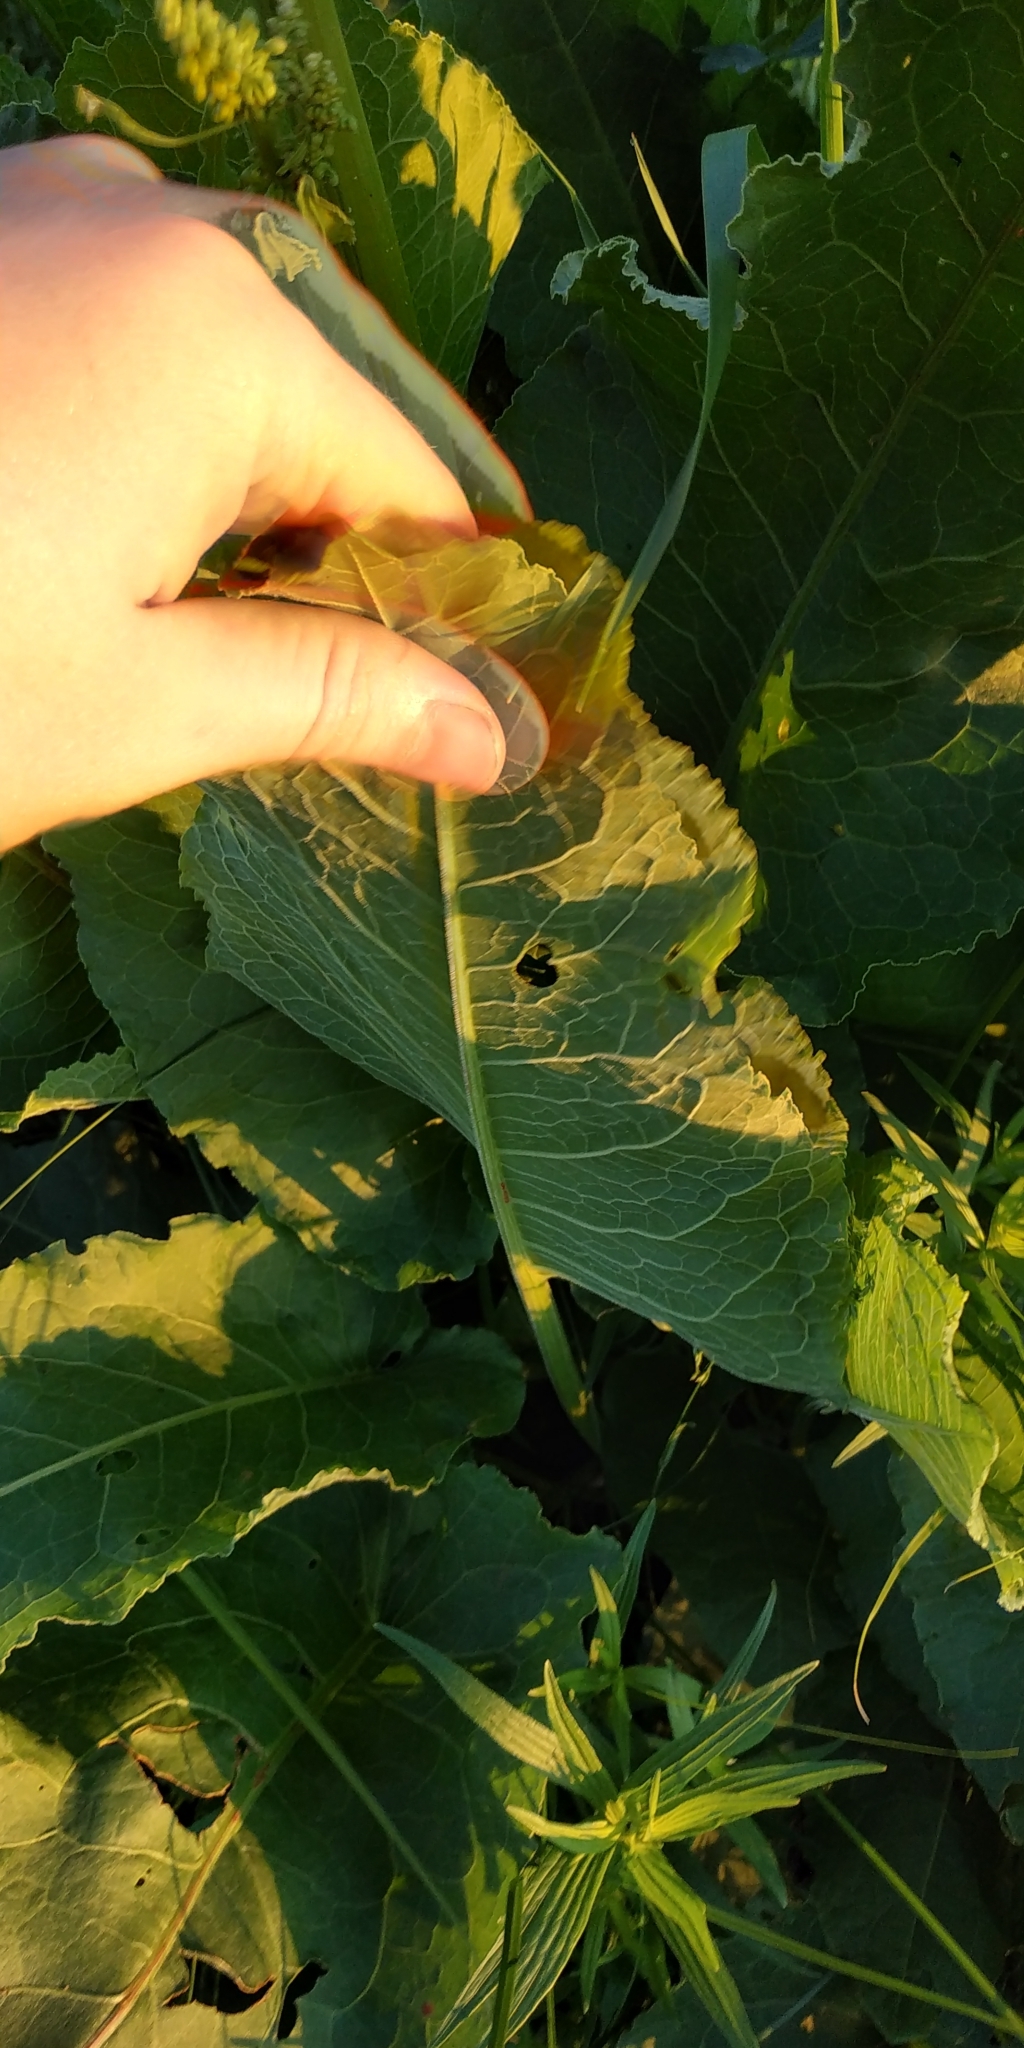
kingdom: Plantae
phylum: Tracheophyta
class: Magnoliopsida
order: Caryophyllales
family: Polygonaceae
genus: Rumex
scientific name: Rumex confertus
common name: Russian dock
